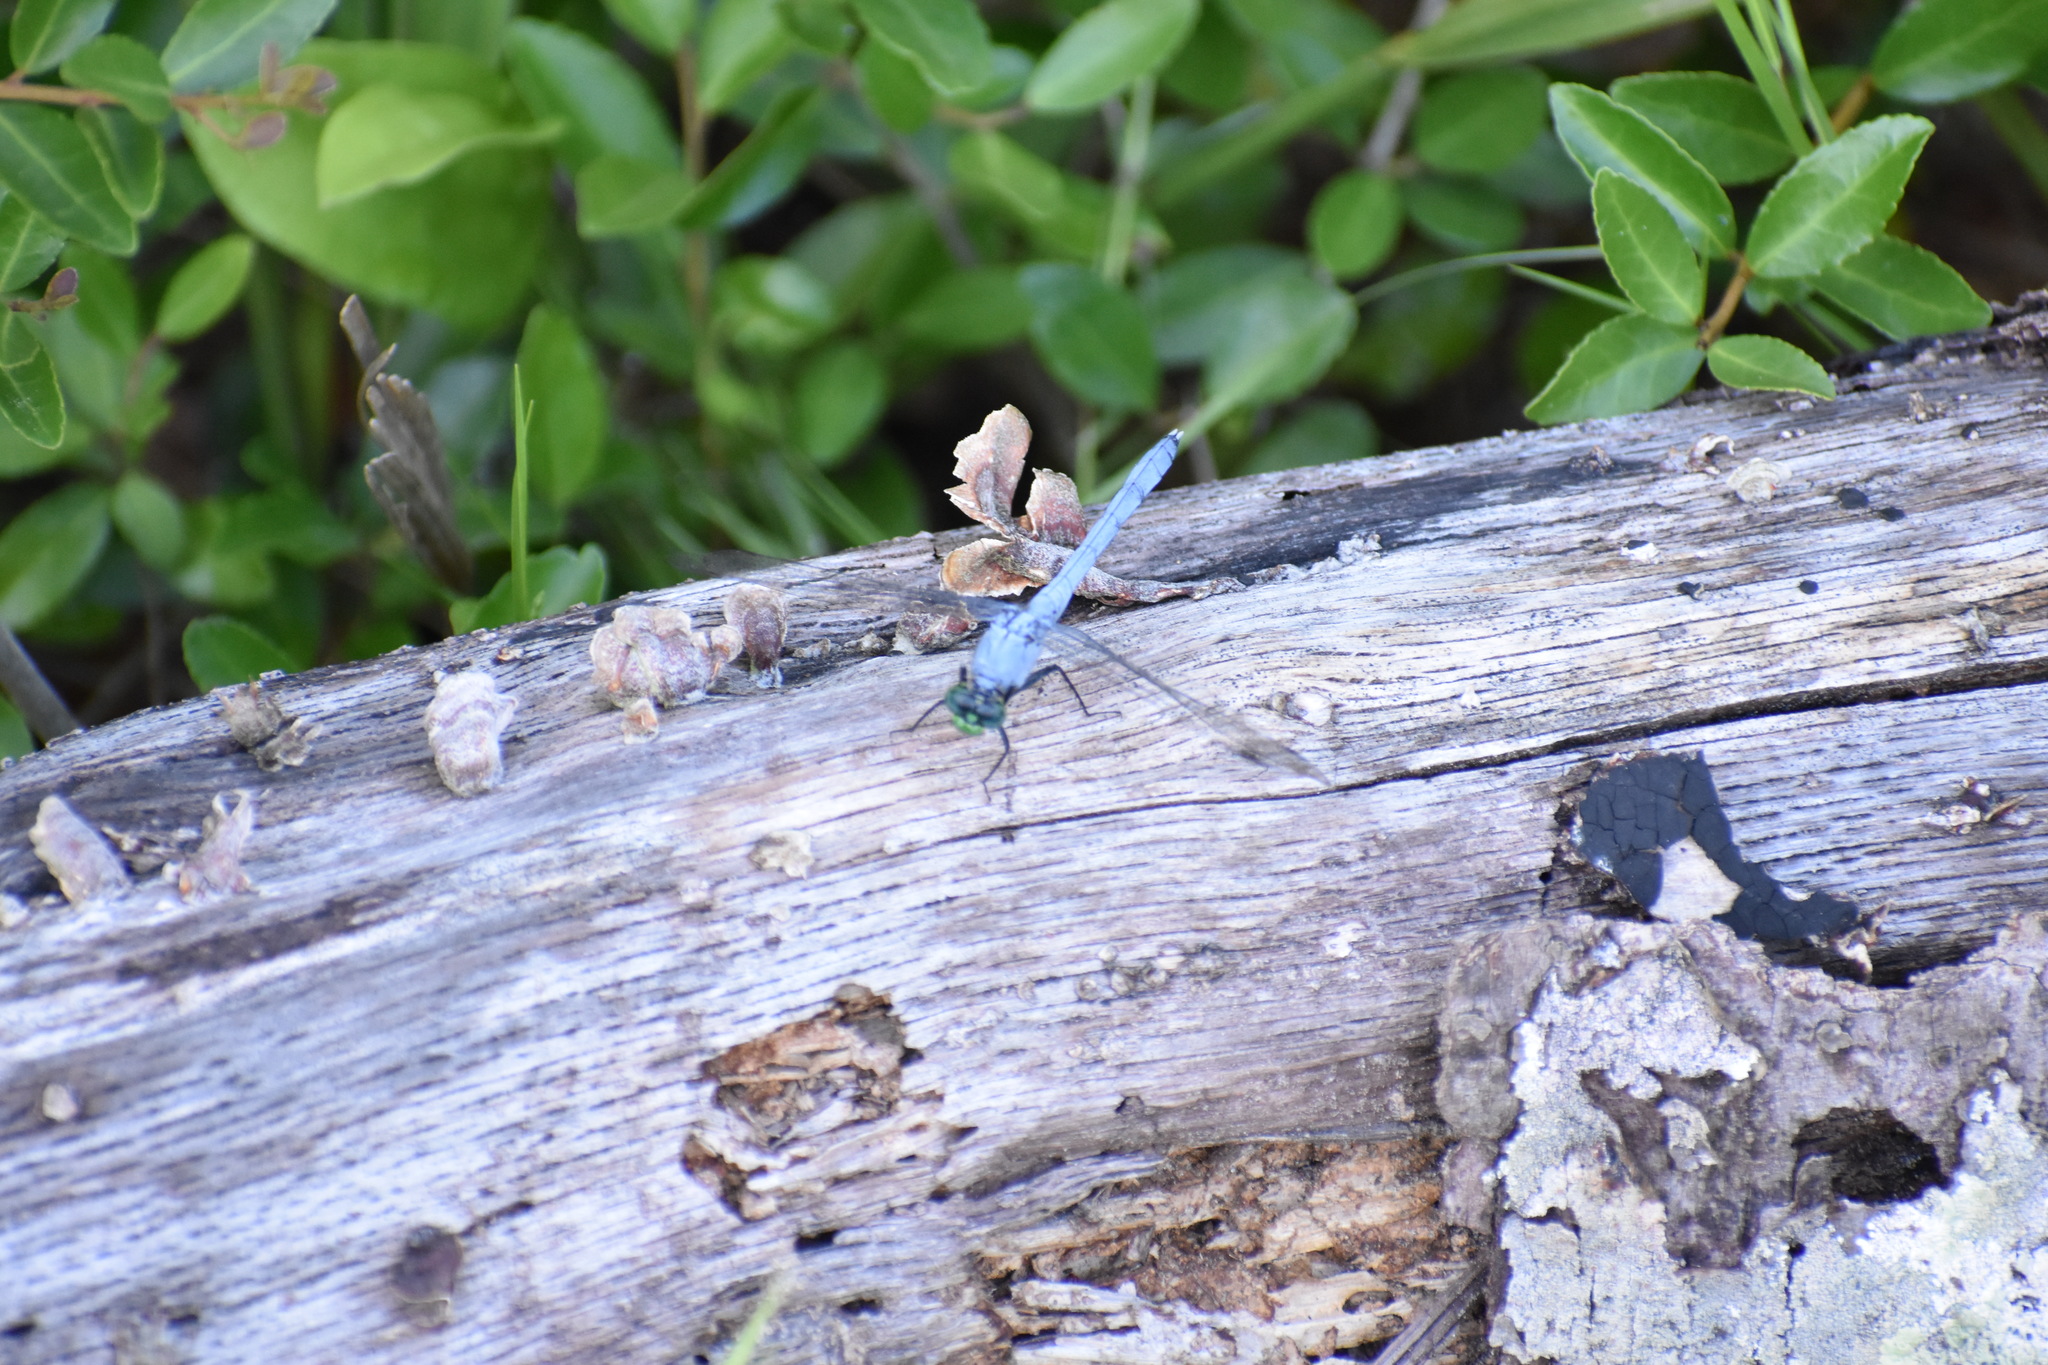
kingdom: Animalia
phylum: Arthropoda
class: Insecta
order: Odonata
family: Libellulidae
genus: Erythemis
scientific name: Erythemis simplicicollis
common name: Eastern pondhawk
